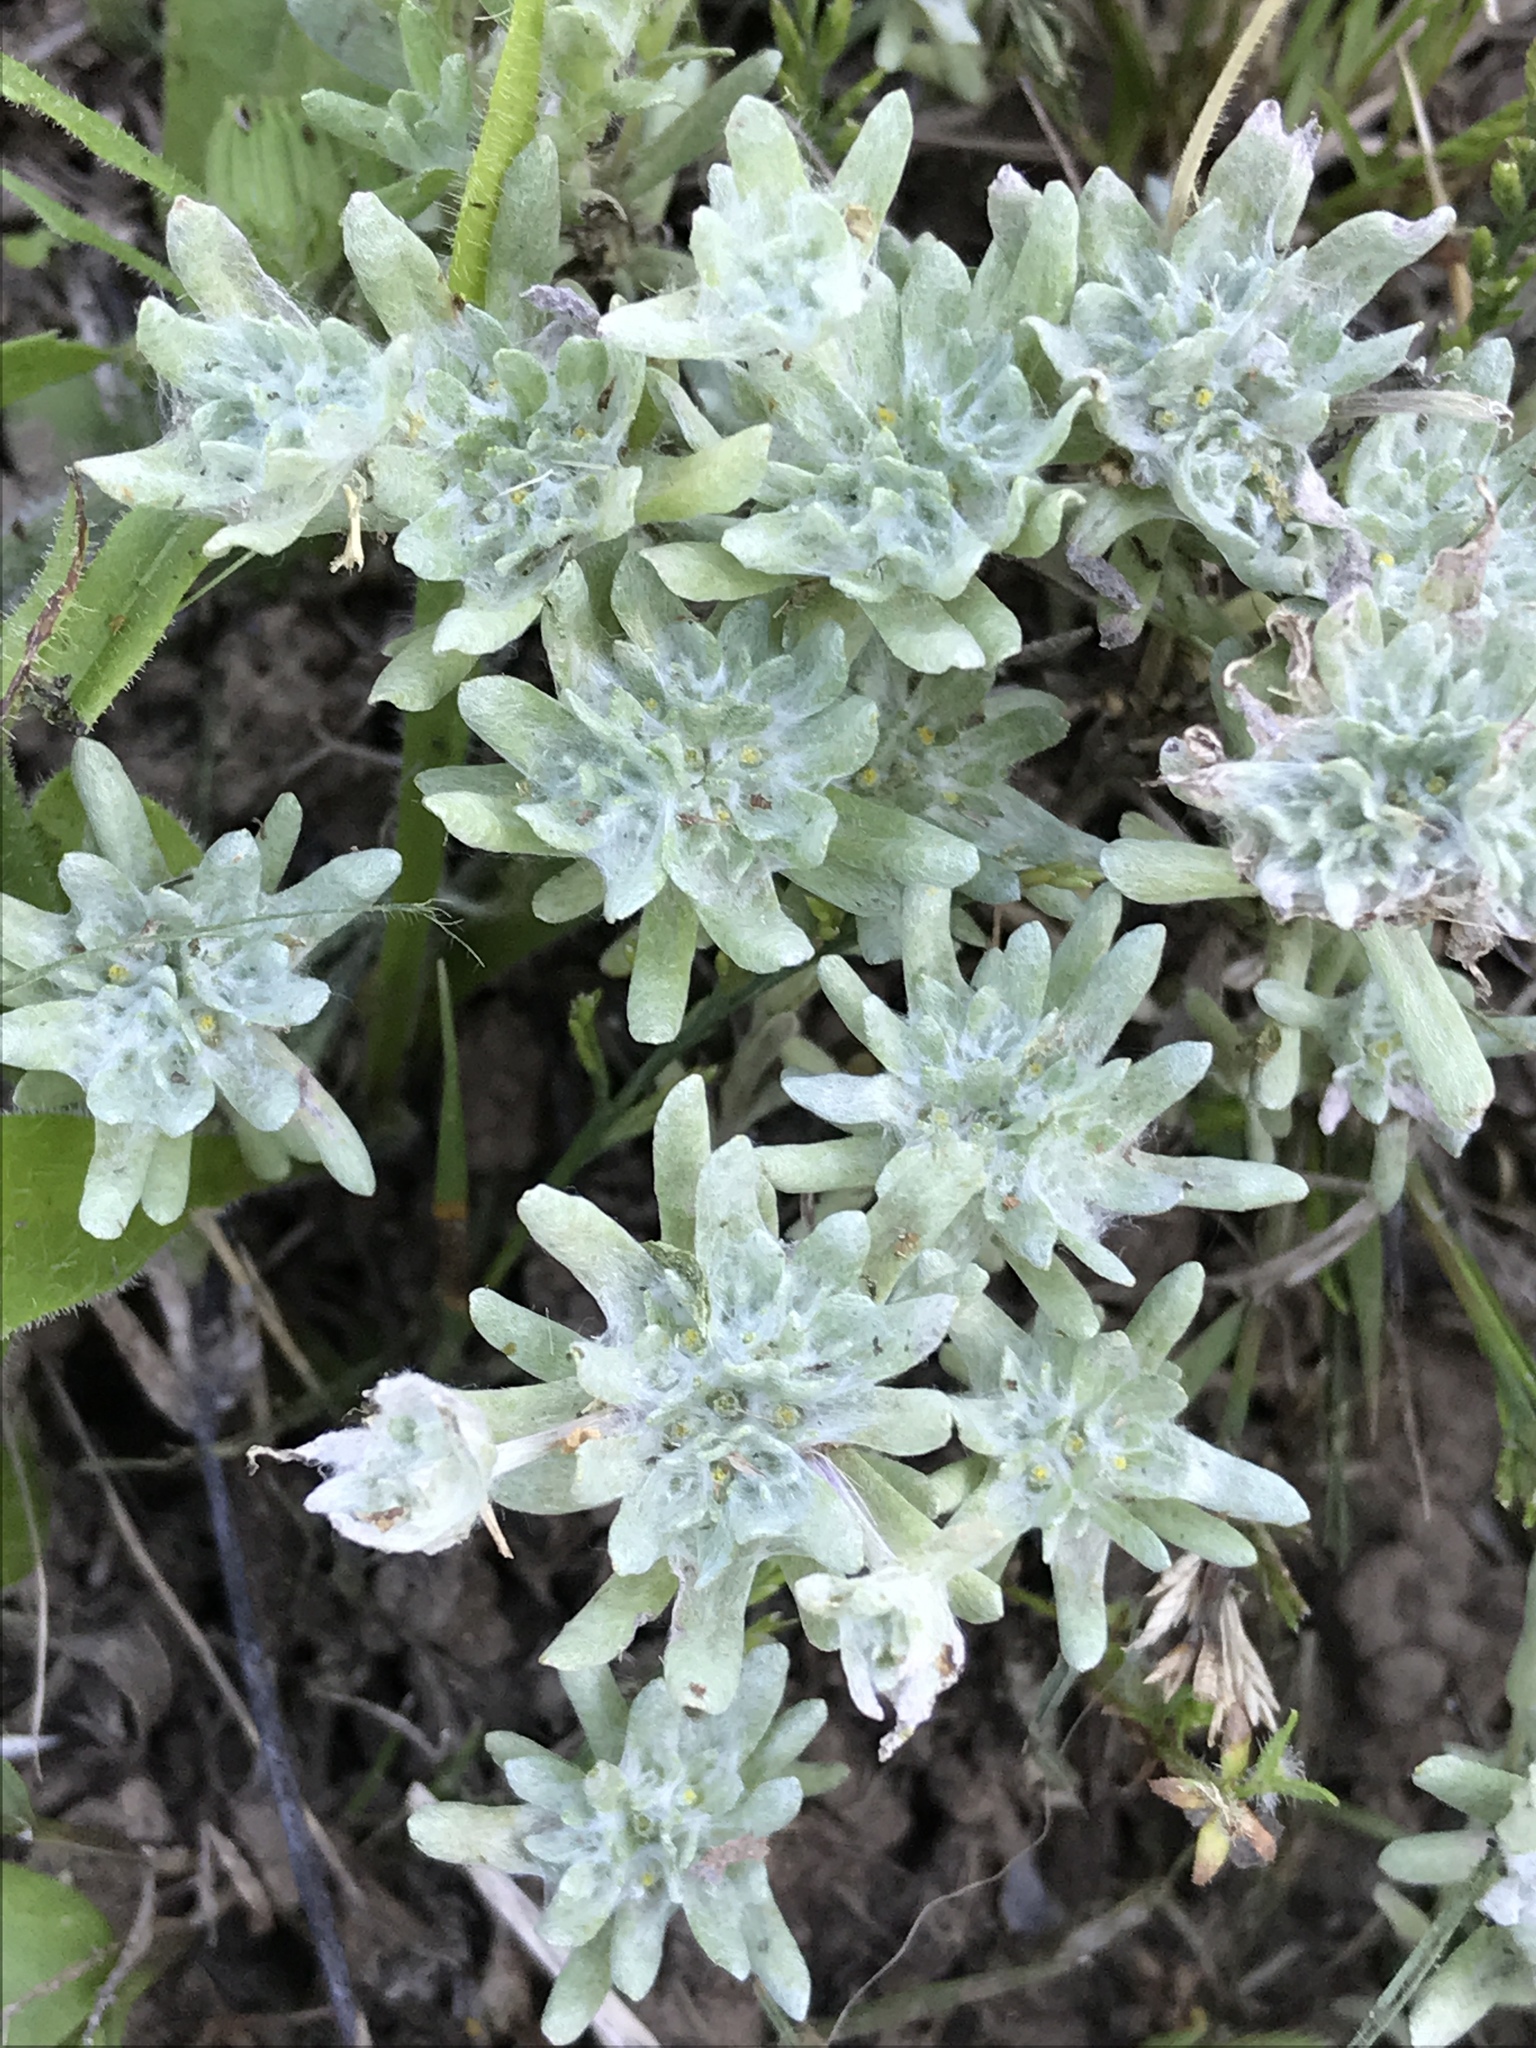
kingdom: Plantae
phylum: Tracheophyta
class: Magnoliopsida
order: Asterales
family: Asteraceae
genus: Diaperia
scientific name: Diaperia prolifera
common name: Big-head rabbit-tobacco
